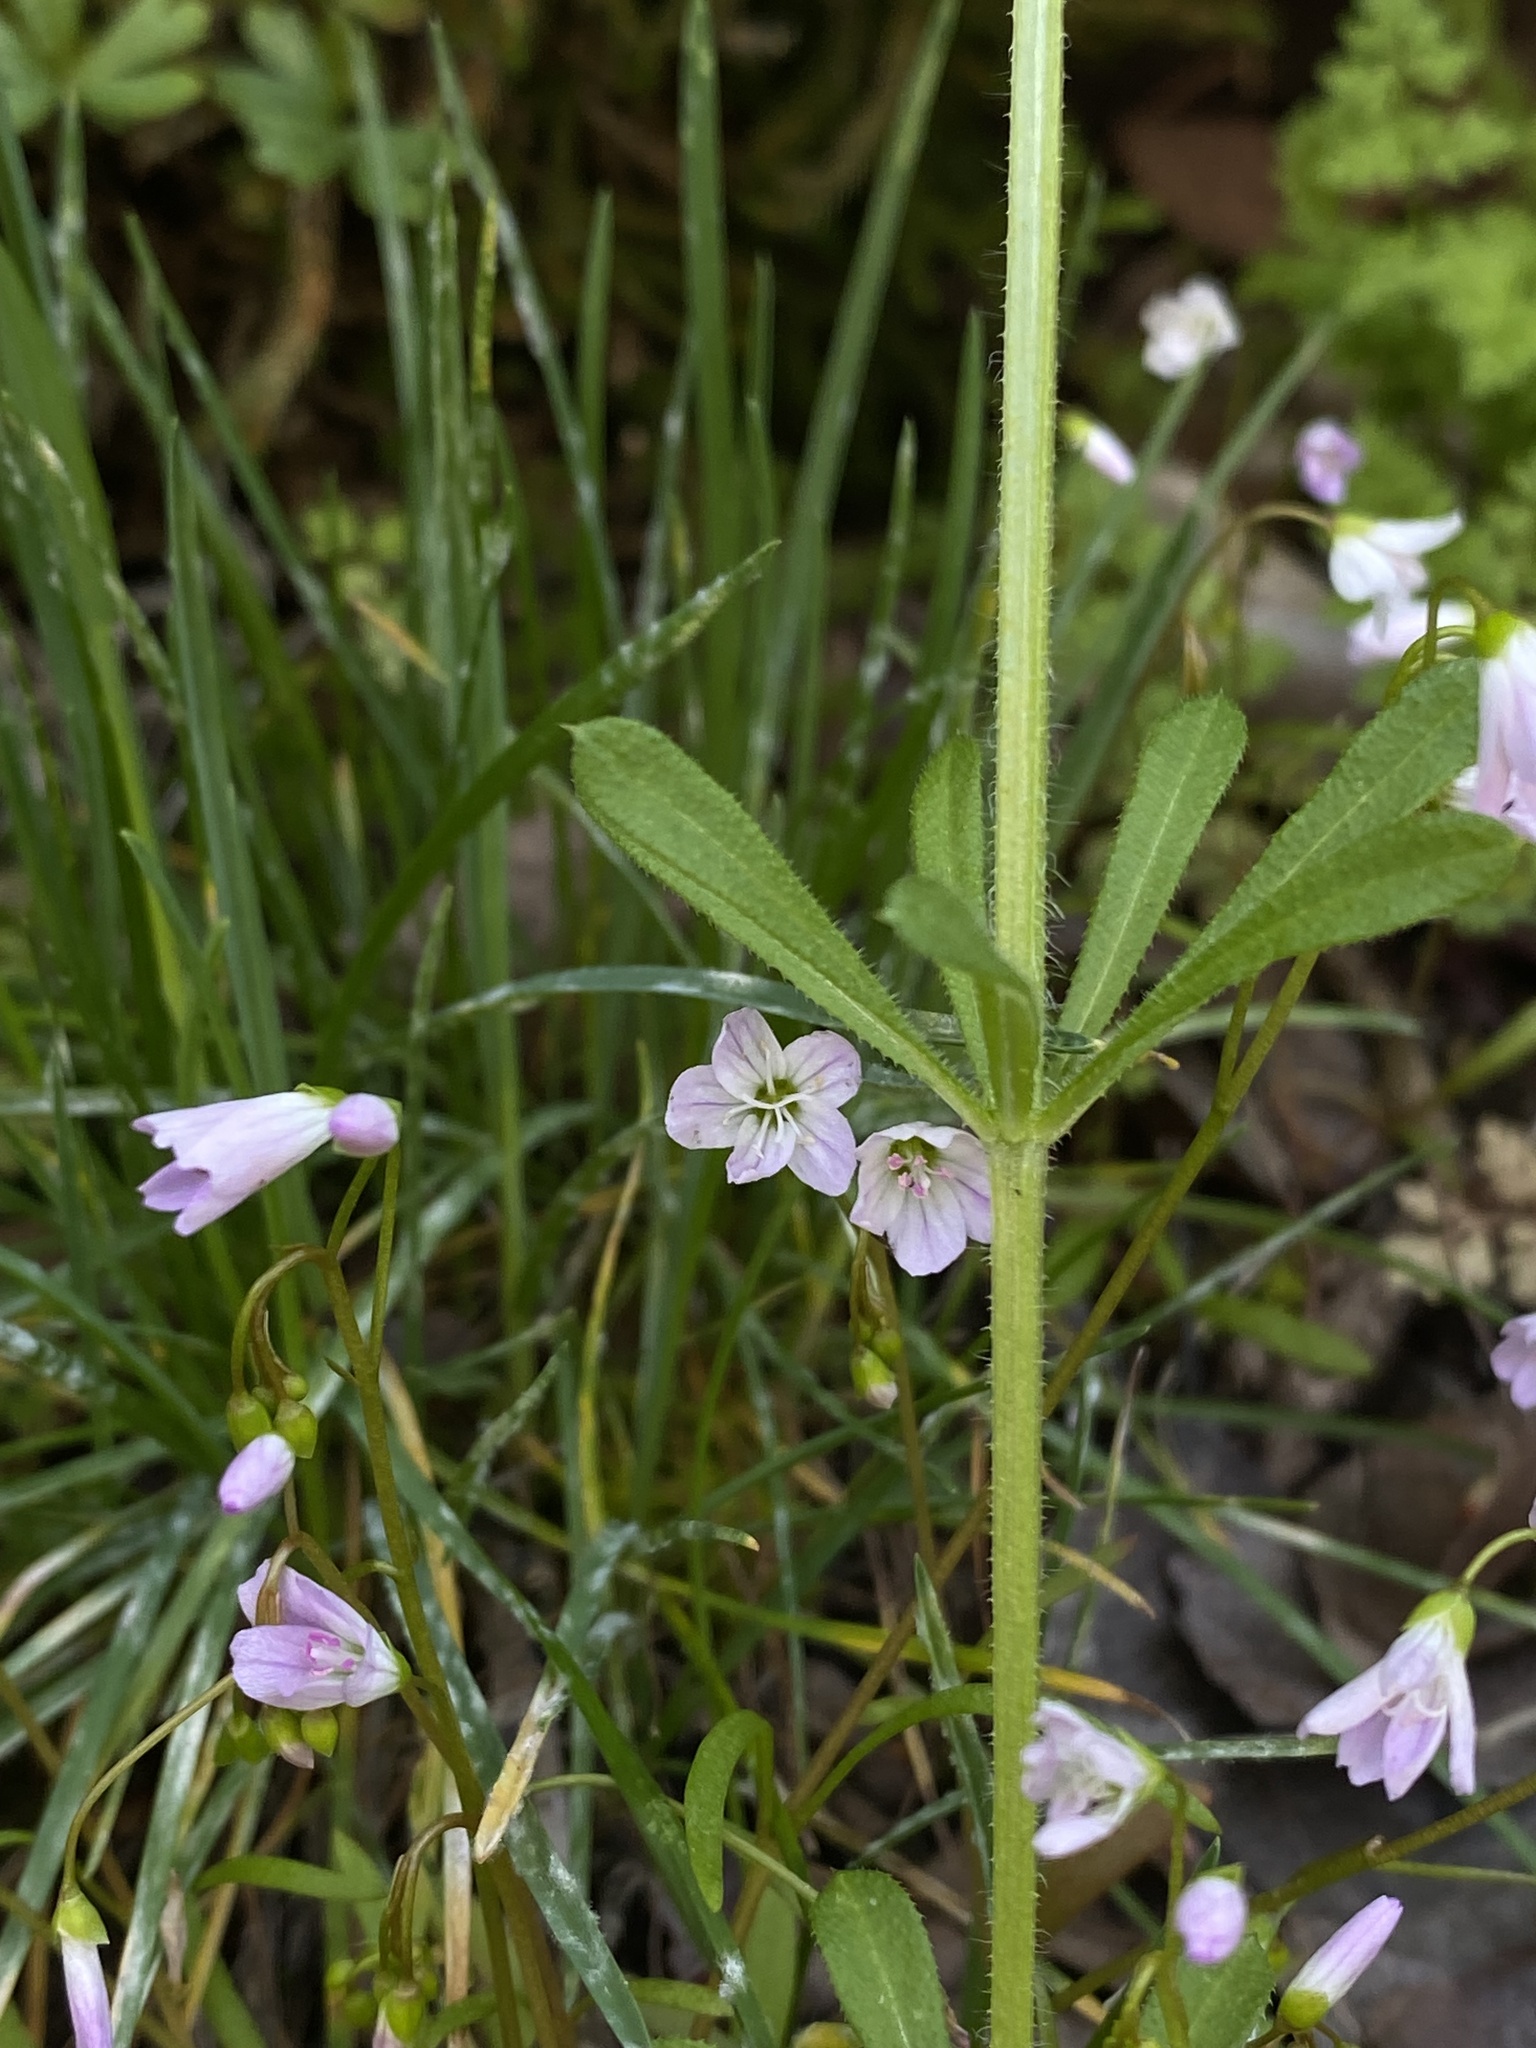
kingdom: Plantae
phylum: Tracheophyta
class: Magnoliopsida
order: Caryophyllales
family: Montiaceae
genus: Claytonia
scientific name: Claytonia arenicola
